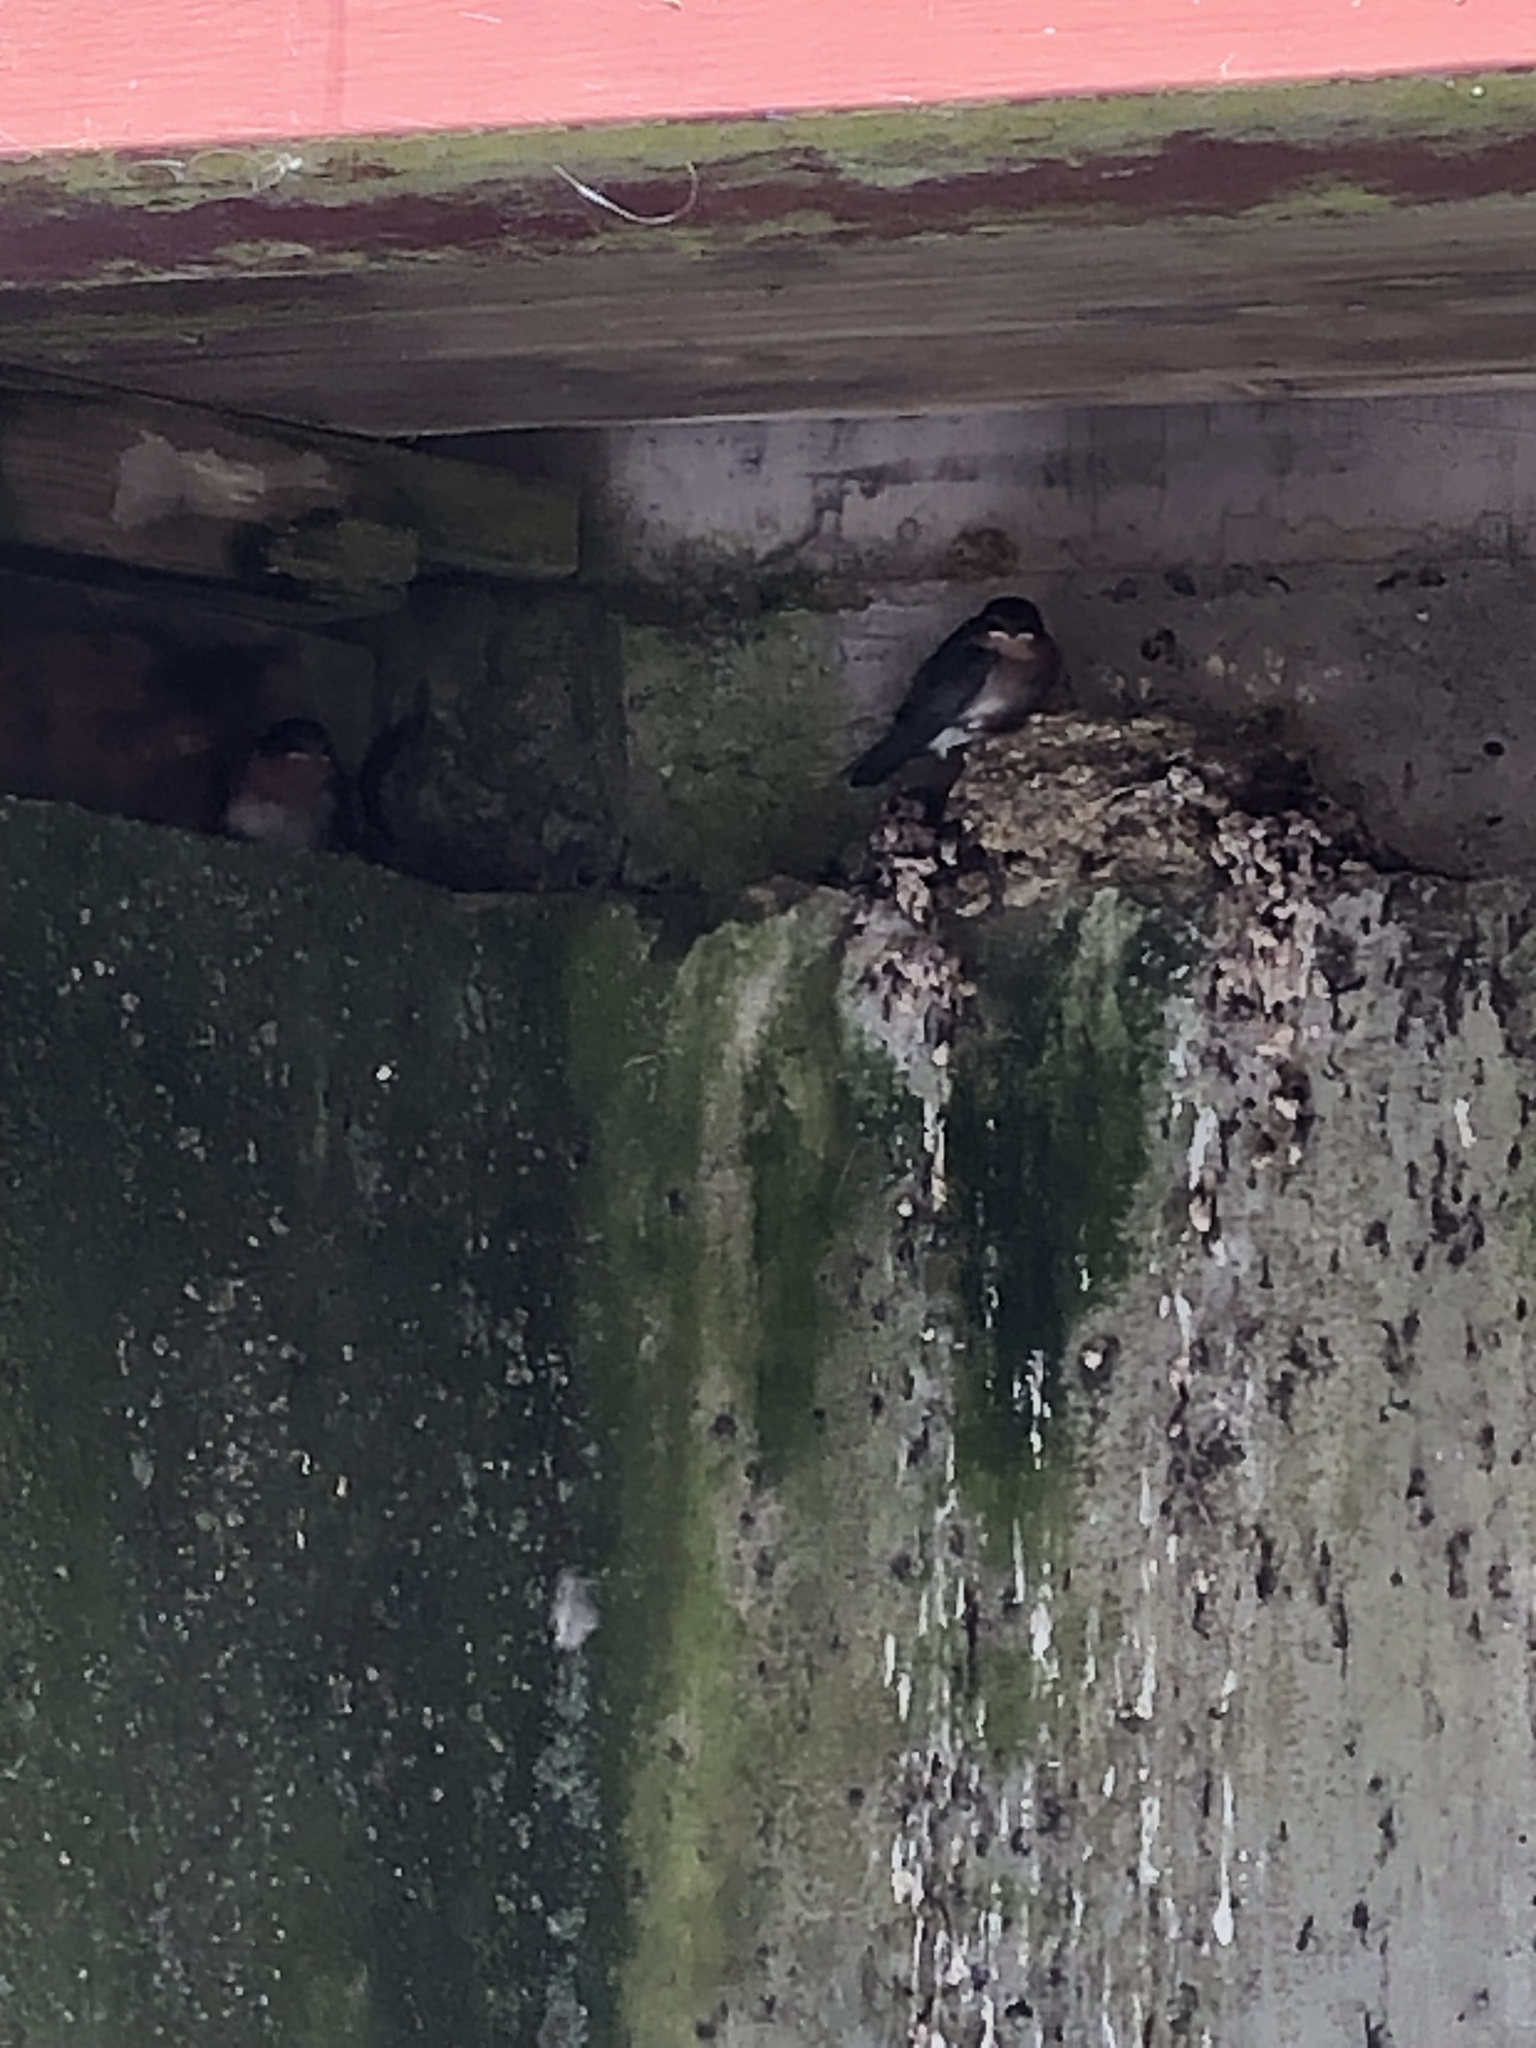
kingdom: Animalia
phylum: Chordata
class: Aves
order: Passeriformes
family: Hirundinidae
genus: Hirundo
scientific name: Hirundo neoxena
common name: Welcome swallow
